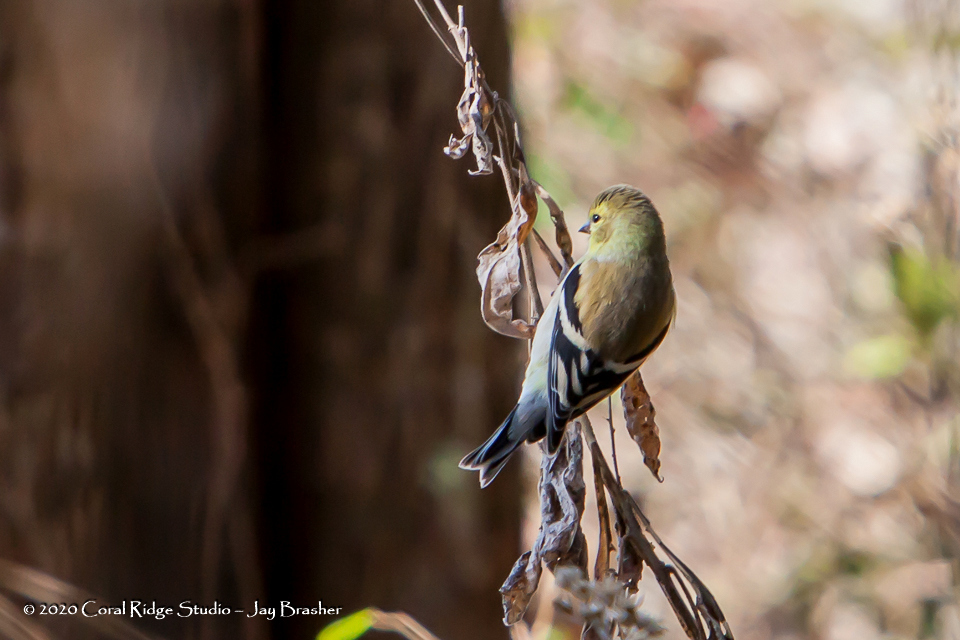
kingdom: Animalia
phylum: Chordata
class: Aves
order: Passeriformes
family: Fringillidae
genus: Spinus
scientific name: Spinus tristis
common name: American goldfinch
